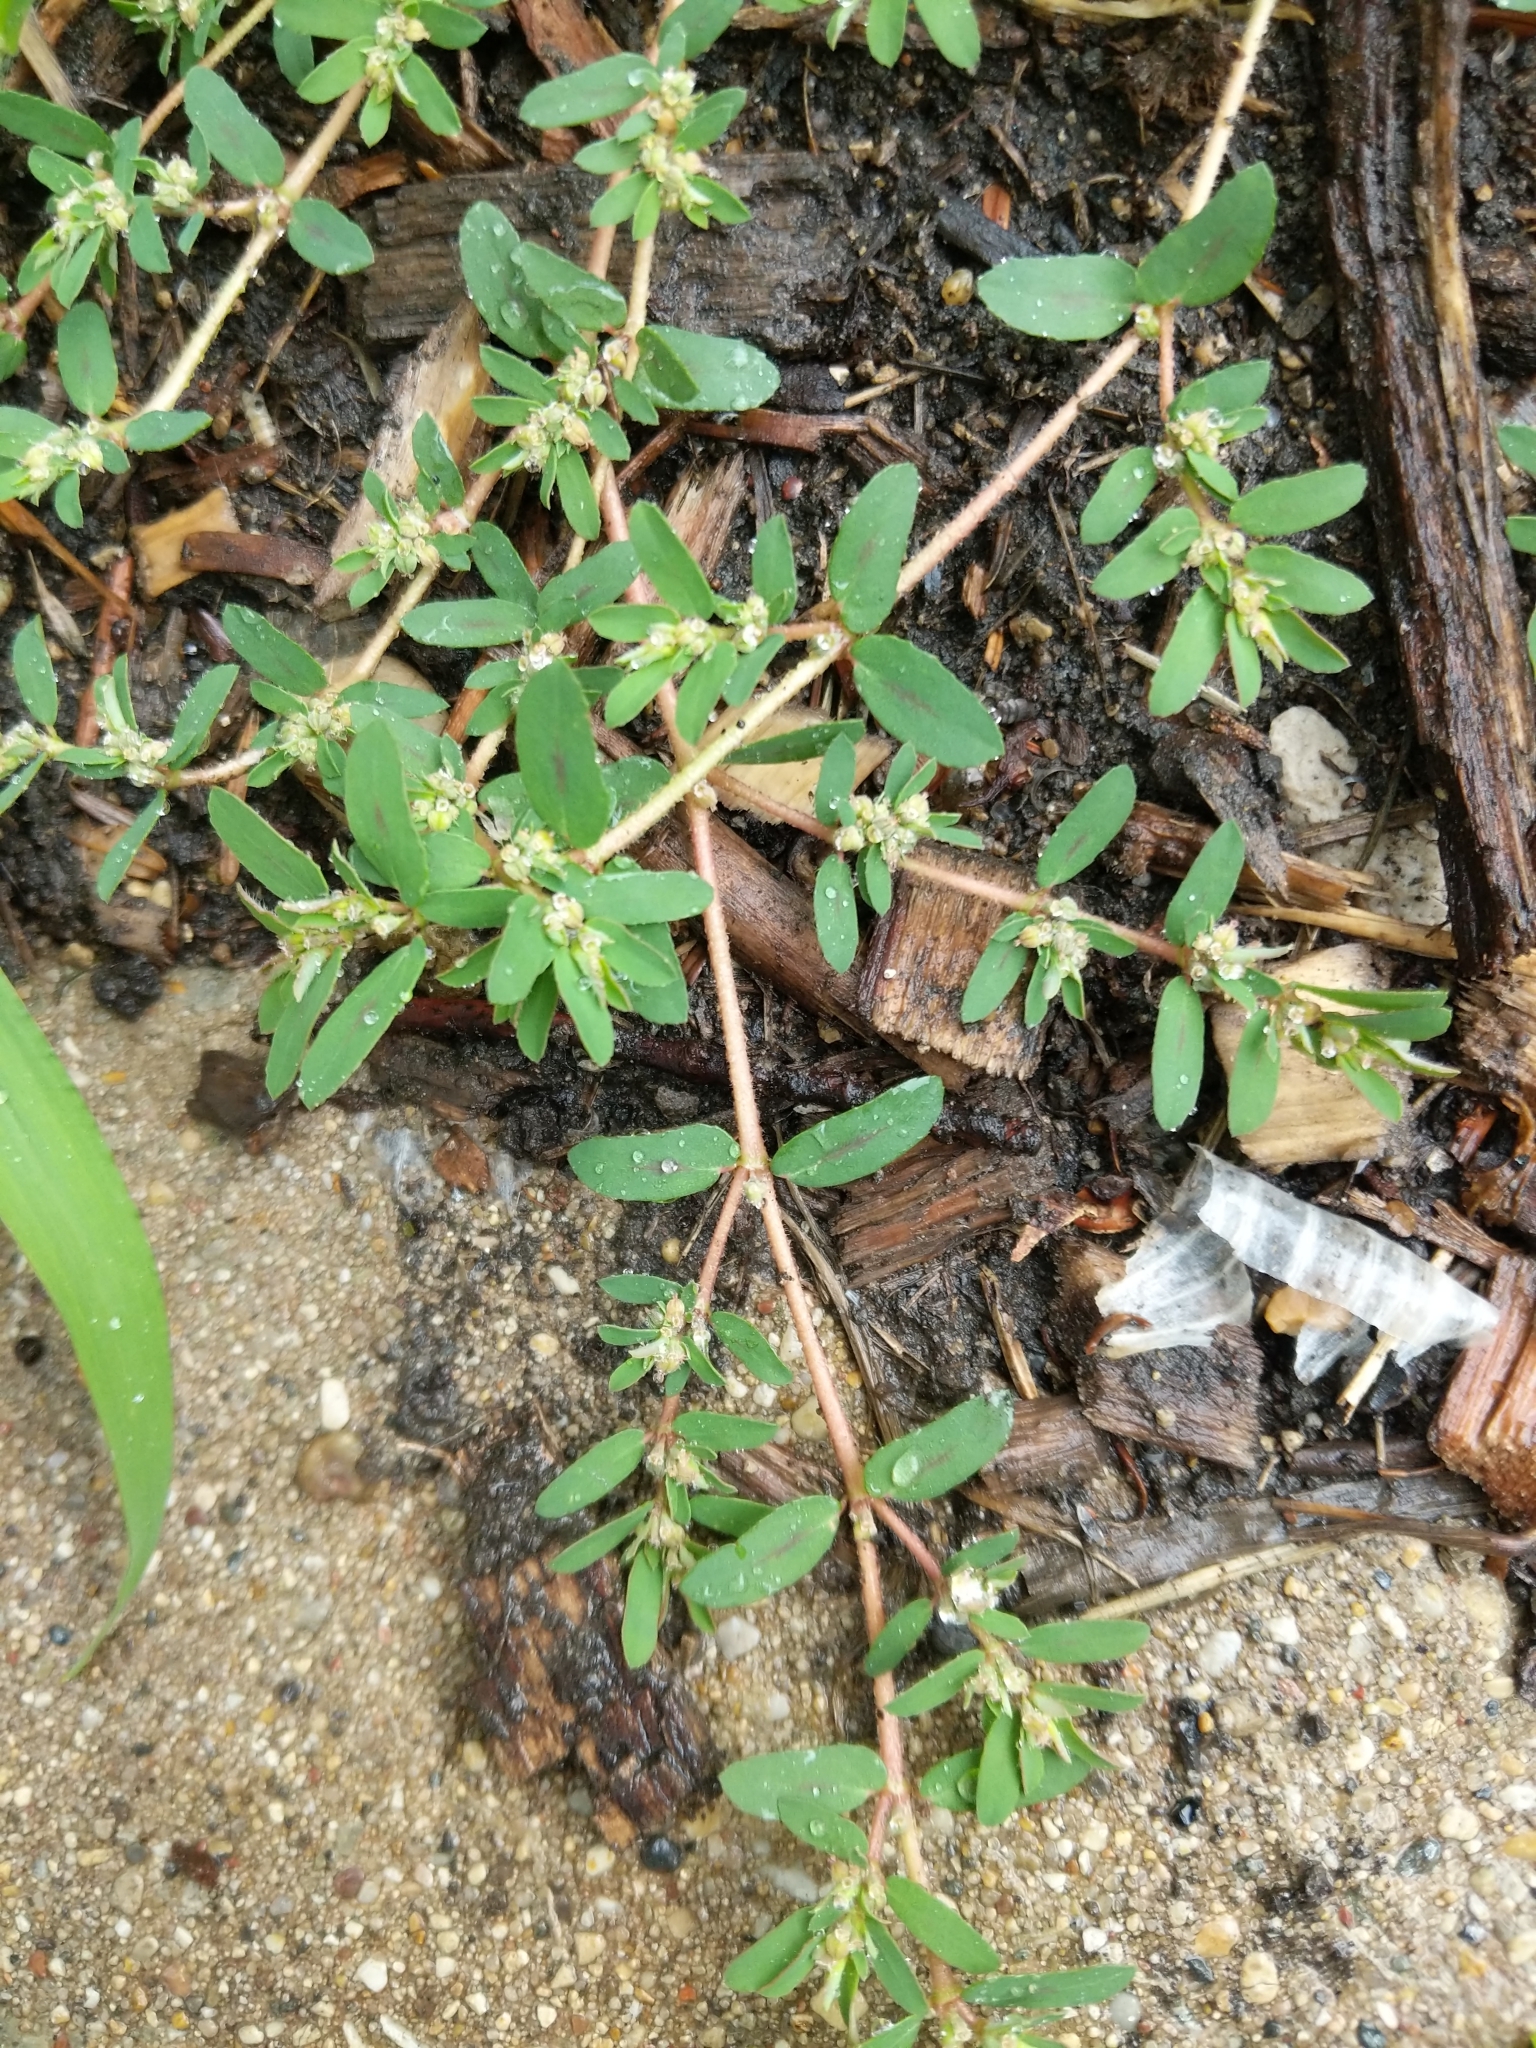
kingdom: Plantae
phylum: Tracheophyta
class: Magnoliopsida
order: Malpighiales
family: Euphorbiaceae
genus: Euphorbia
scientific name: Euphorbia maculata
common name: Spotted spurge
